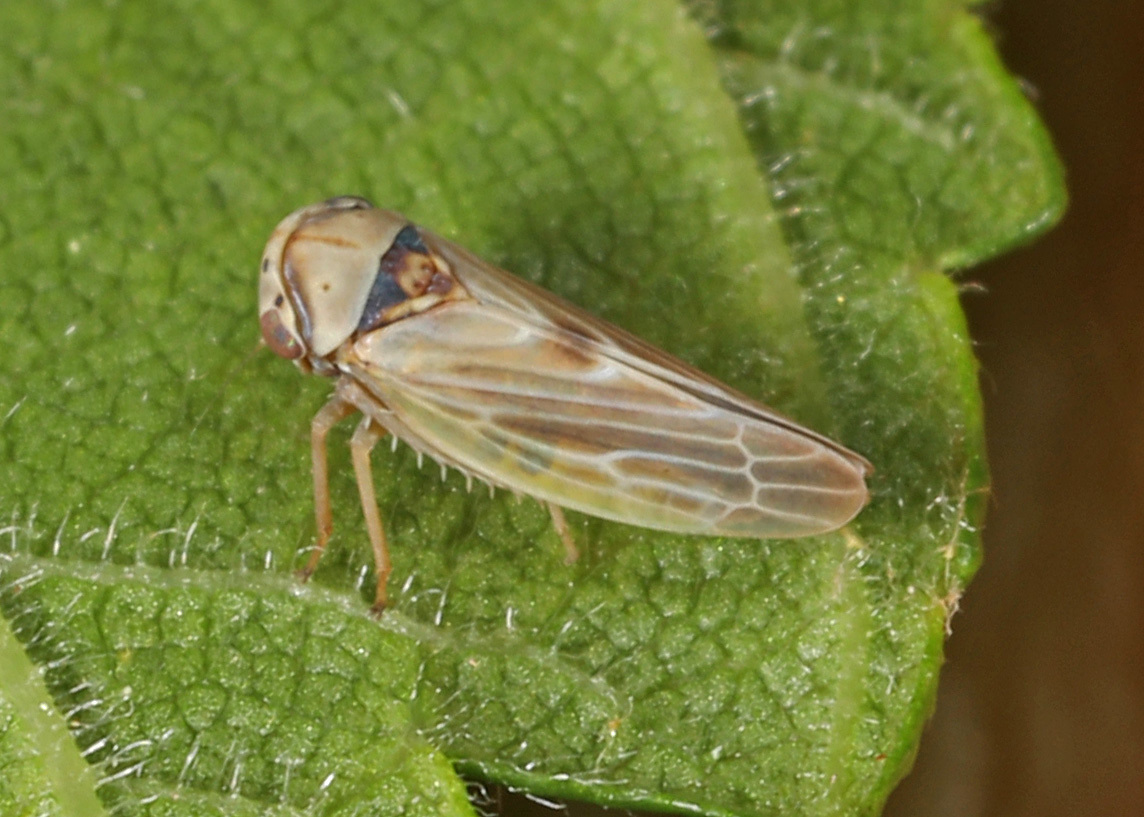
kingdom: Animalia
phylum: Arthropoda
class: Insecta
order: Hemiptera
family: Cicadellidae
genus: Agalliopsis
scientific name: Agalliopsis ancistra
